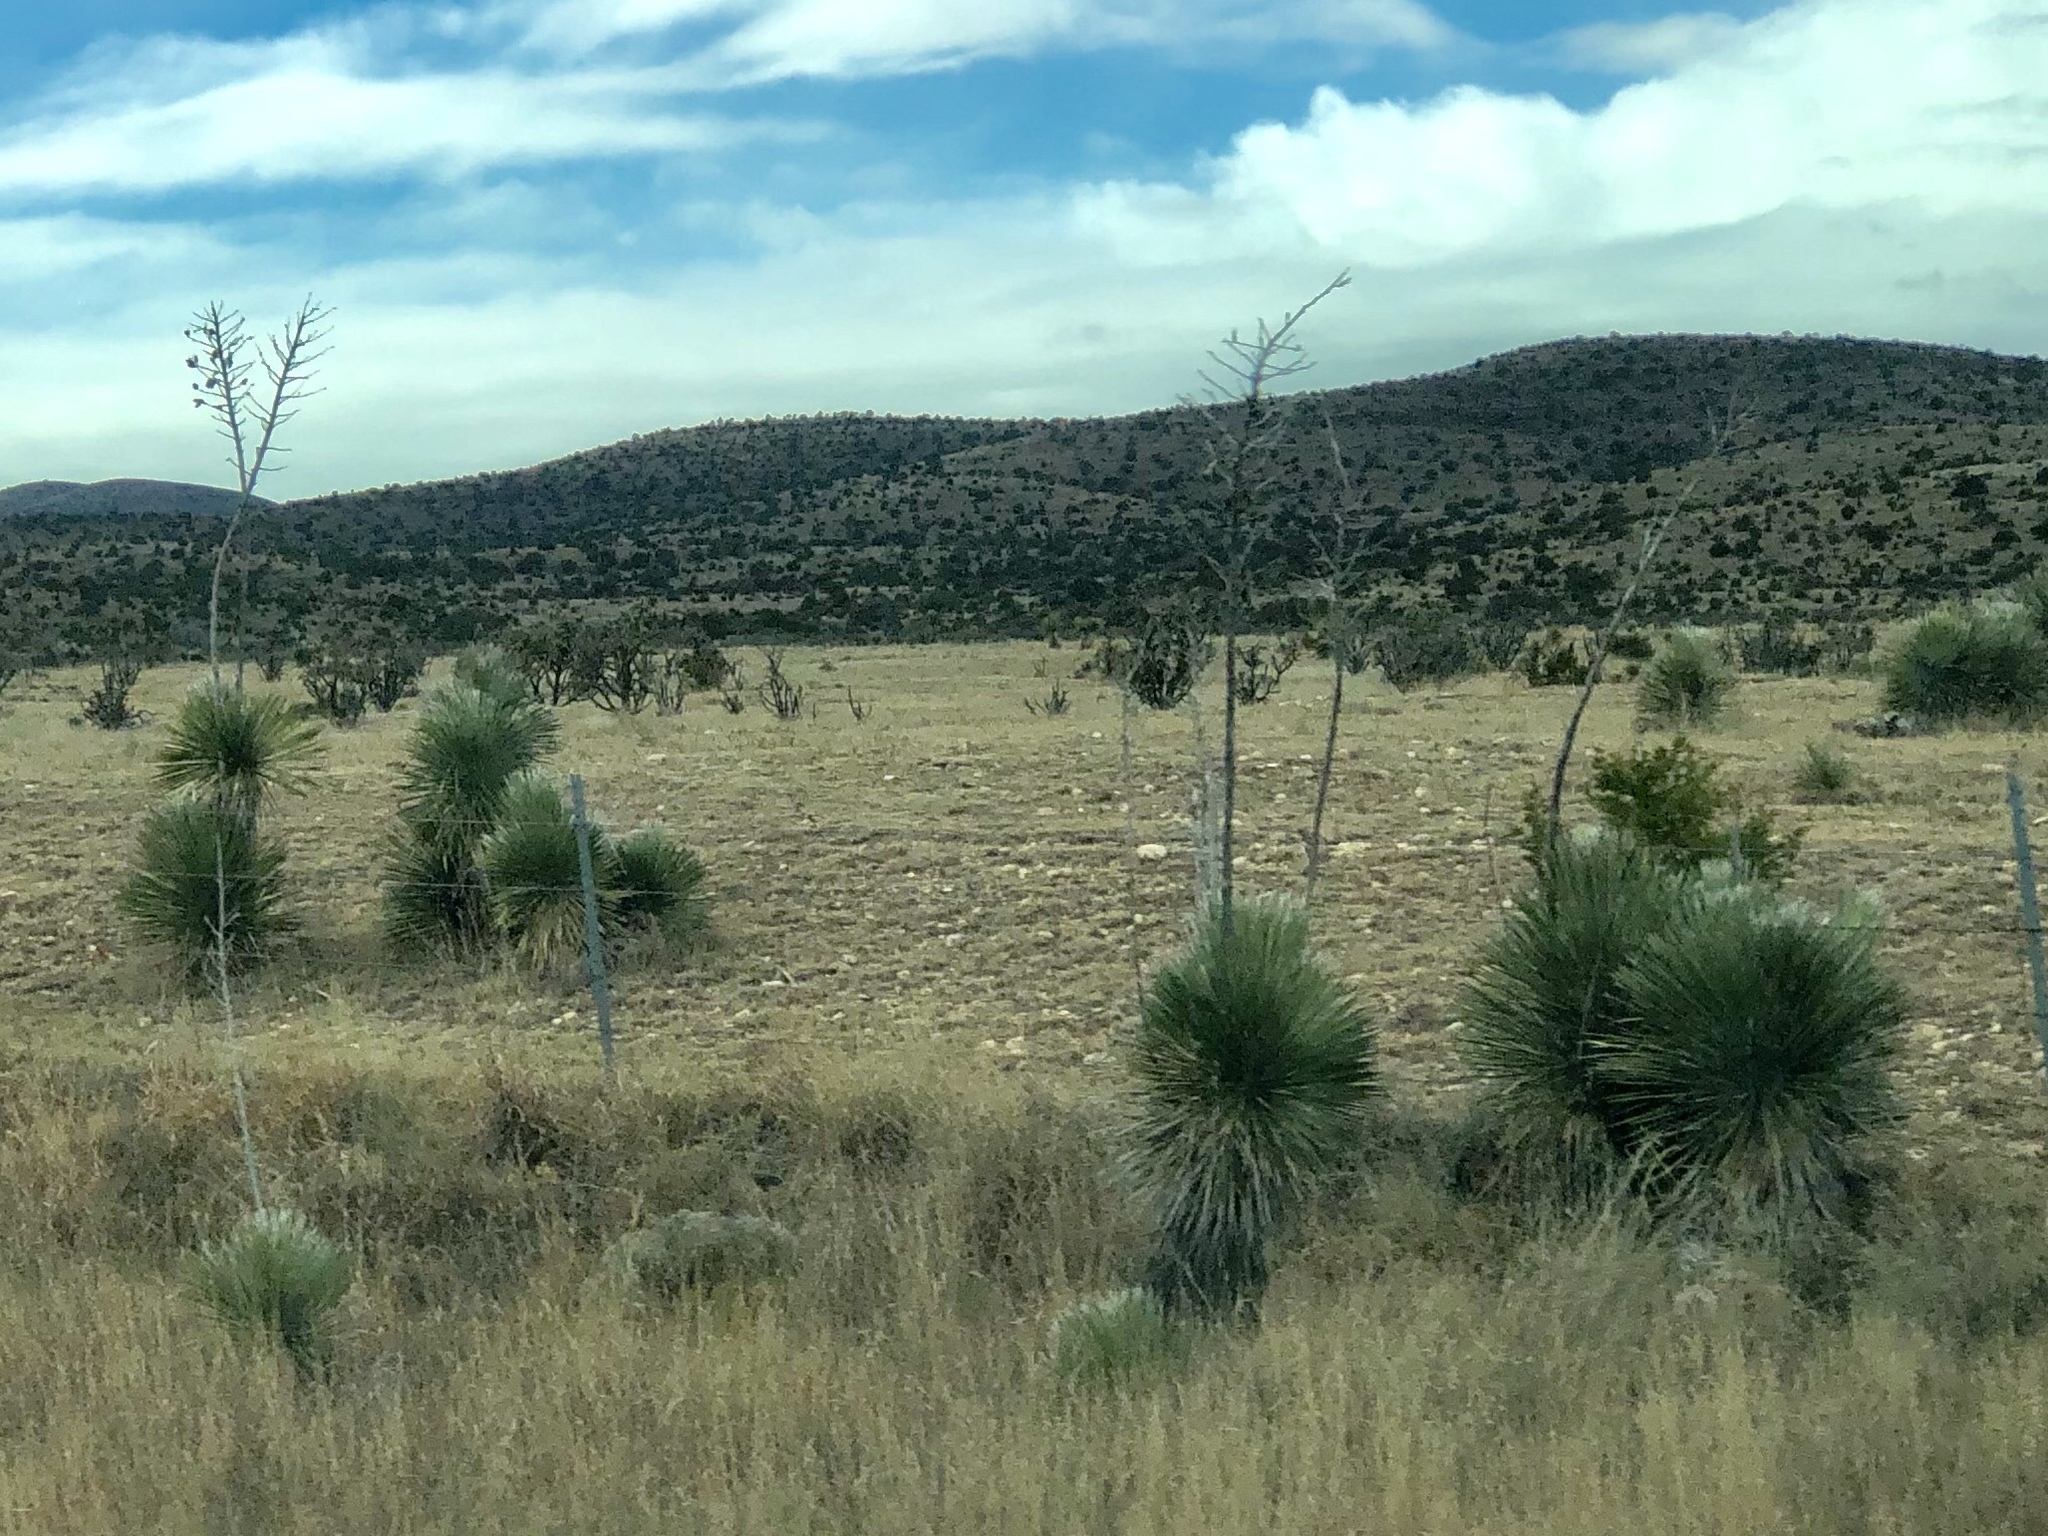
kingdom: Plantae
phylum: Tracheophyta
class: Liliopsida
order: Asparagales
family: Asparagaceae
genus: Yucca
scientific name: Yucca elata
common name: Palmella
